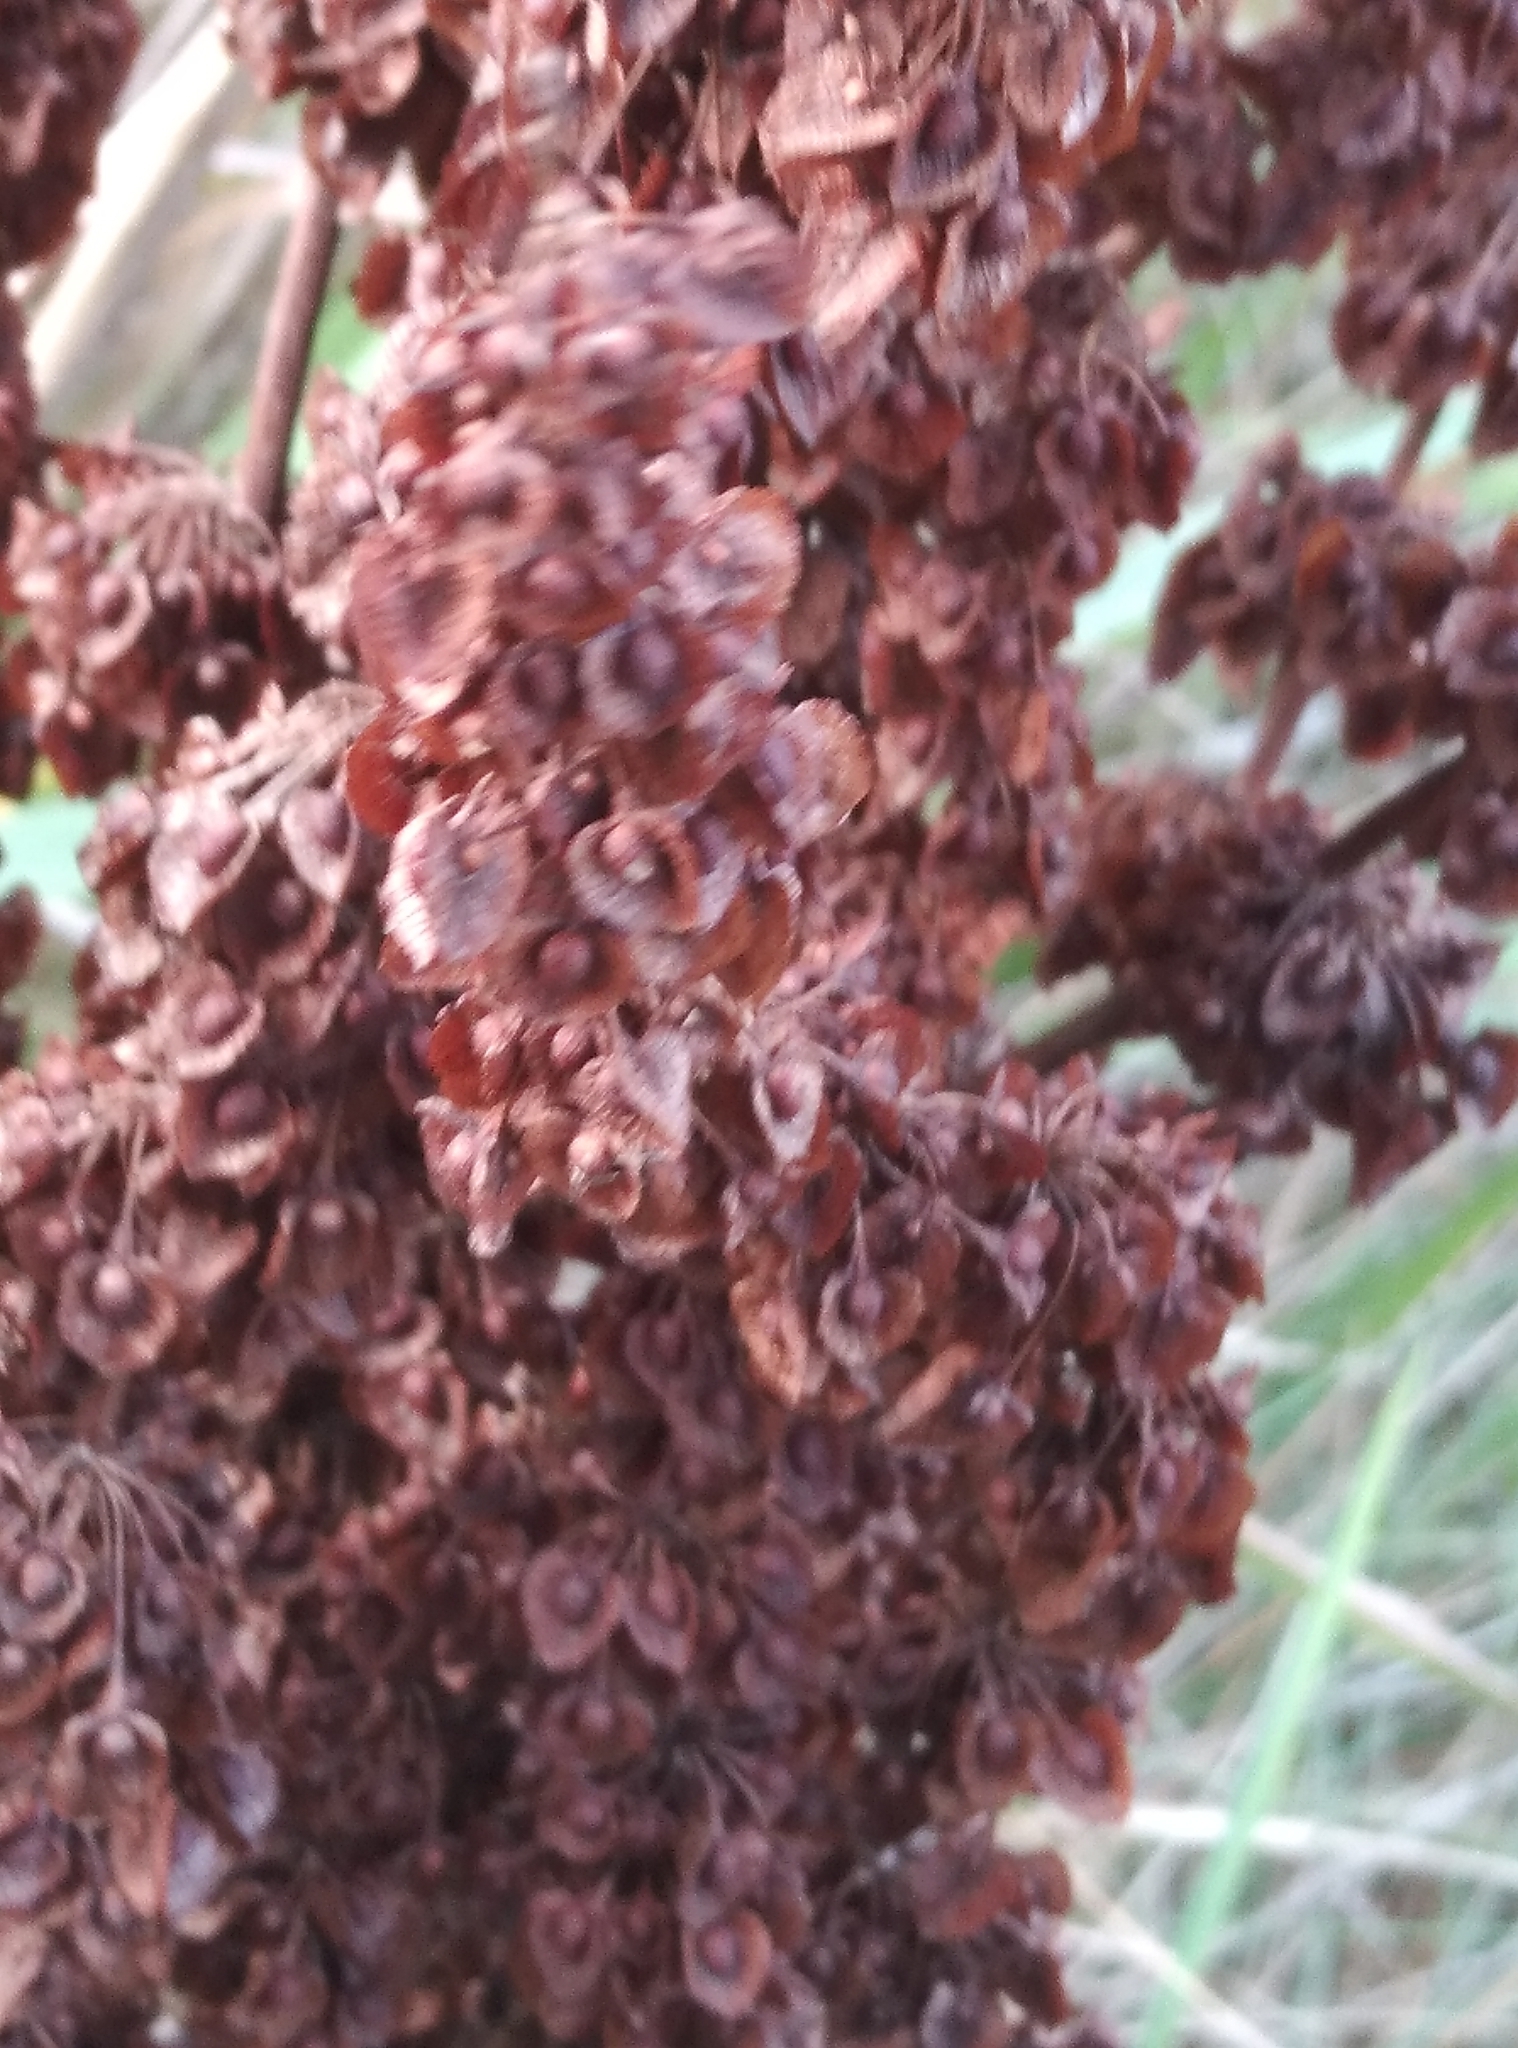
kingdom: Plantae
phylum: Tracheophyta
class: Magnoliopsida
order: Caryophyllales
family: Polygonaceae
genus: Rumex
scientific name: Rumex crispus
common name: Curled dock
